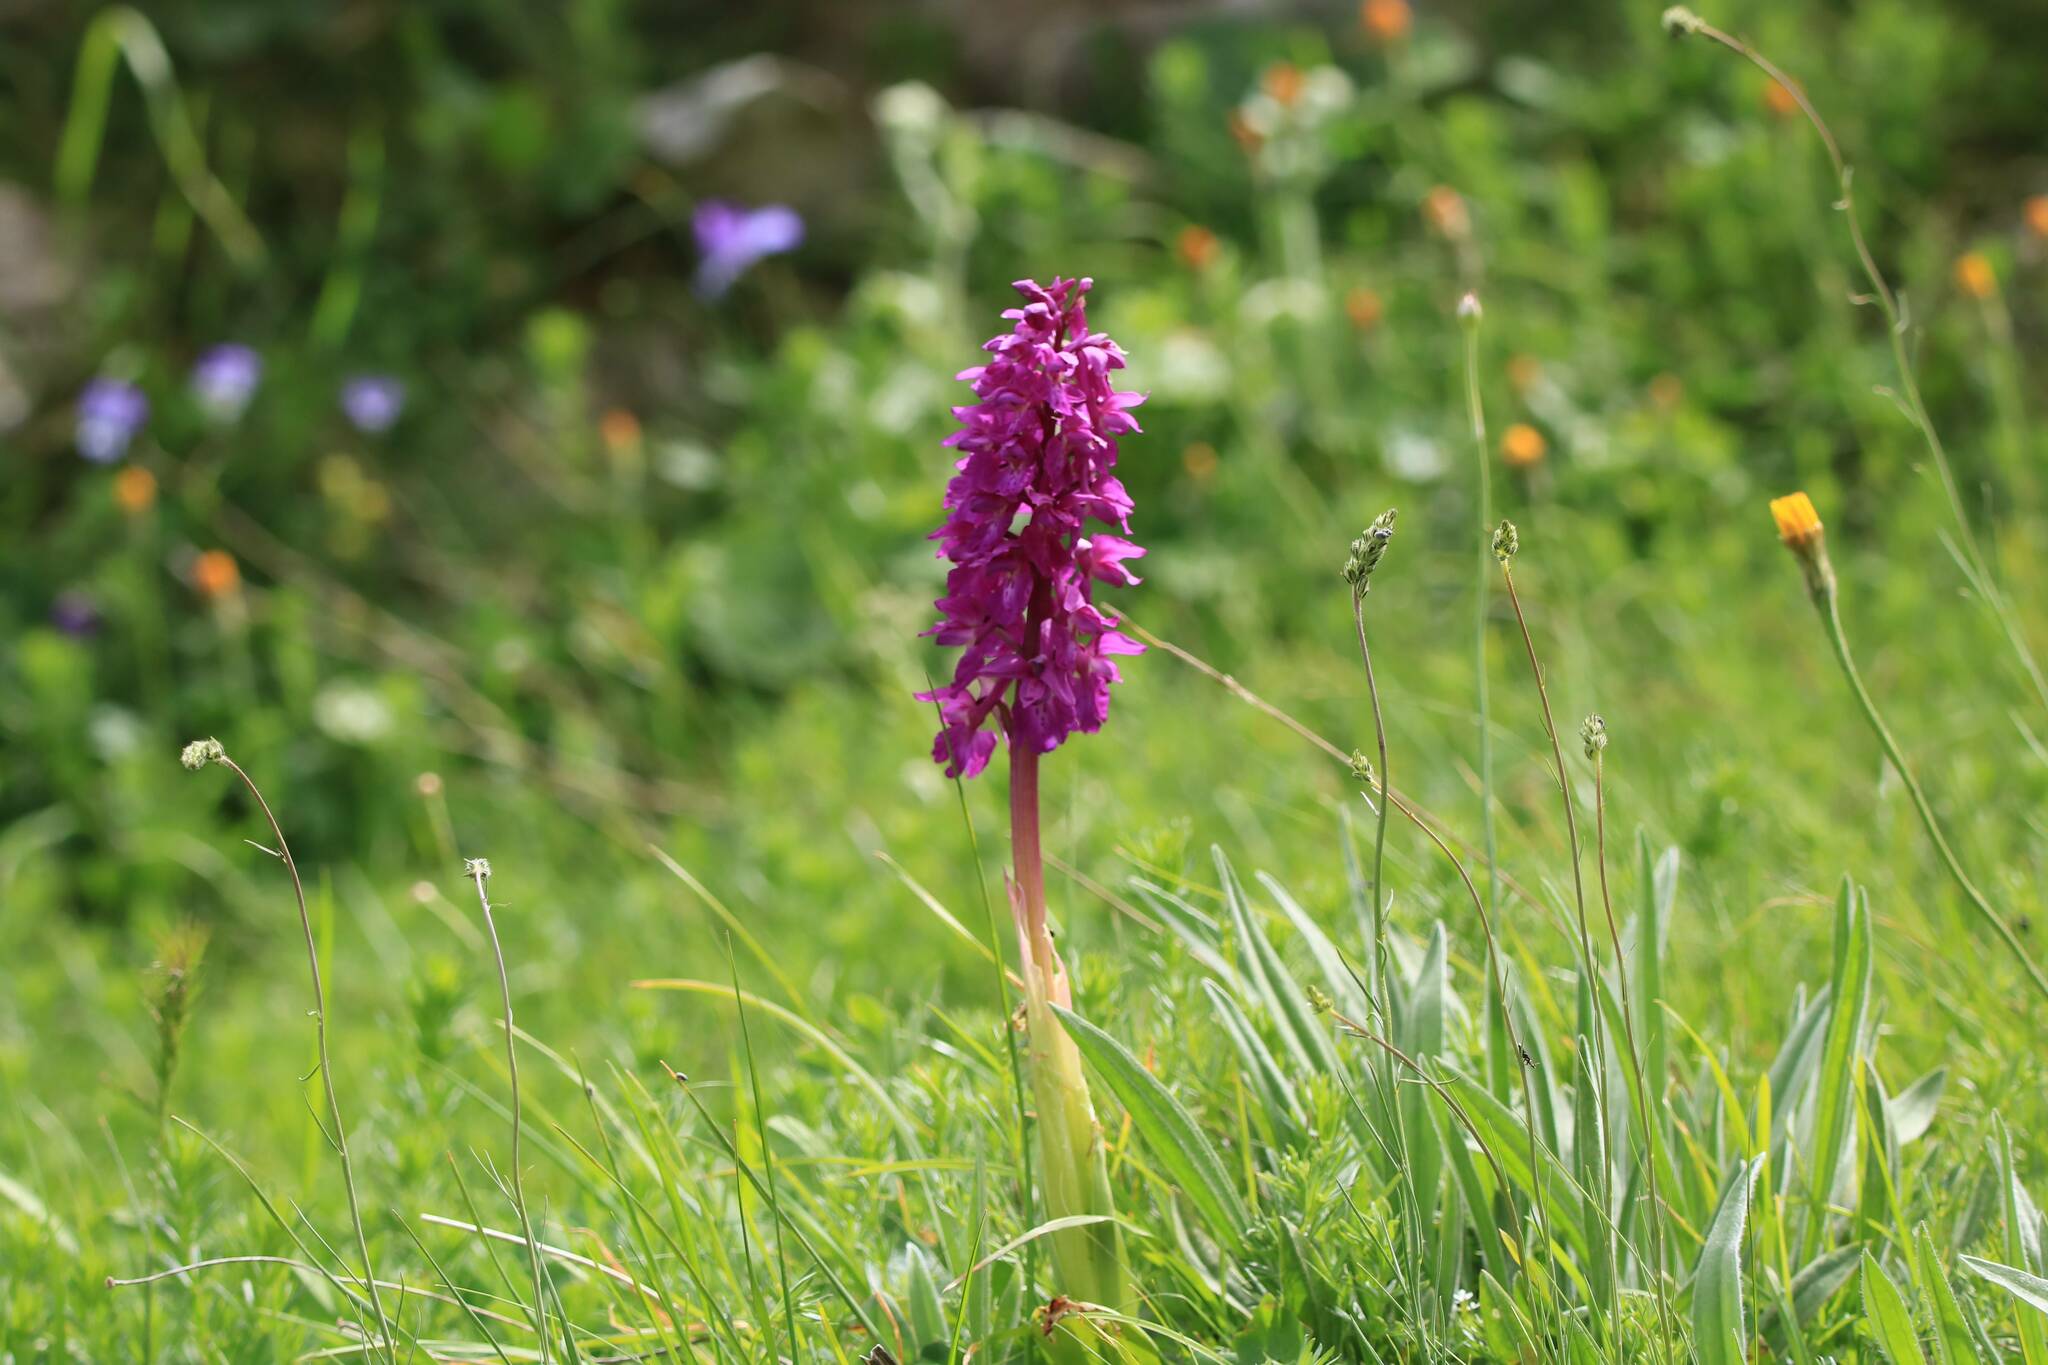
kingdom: Plantae
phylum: Tracheophyta
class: Liliopsida
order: Asparagales
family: Orchidaceae
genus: Orchis
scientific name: Orchis mascula
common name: Early-purple orchid
